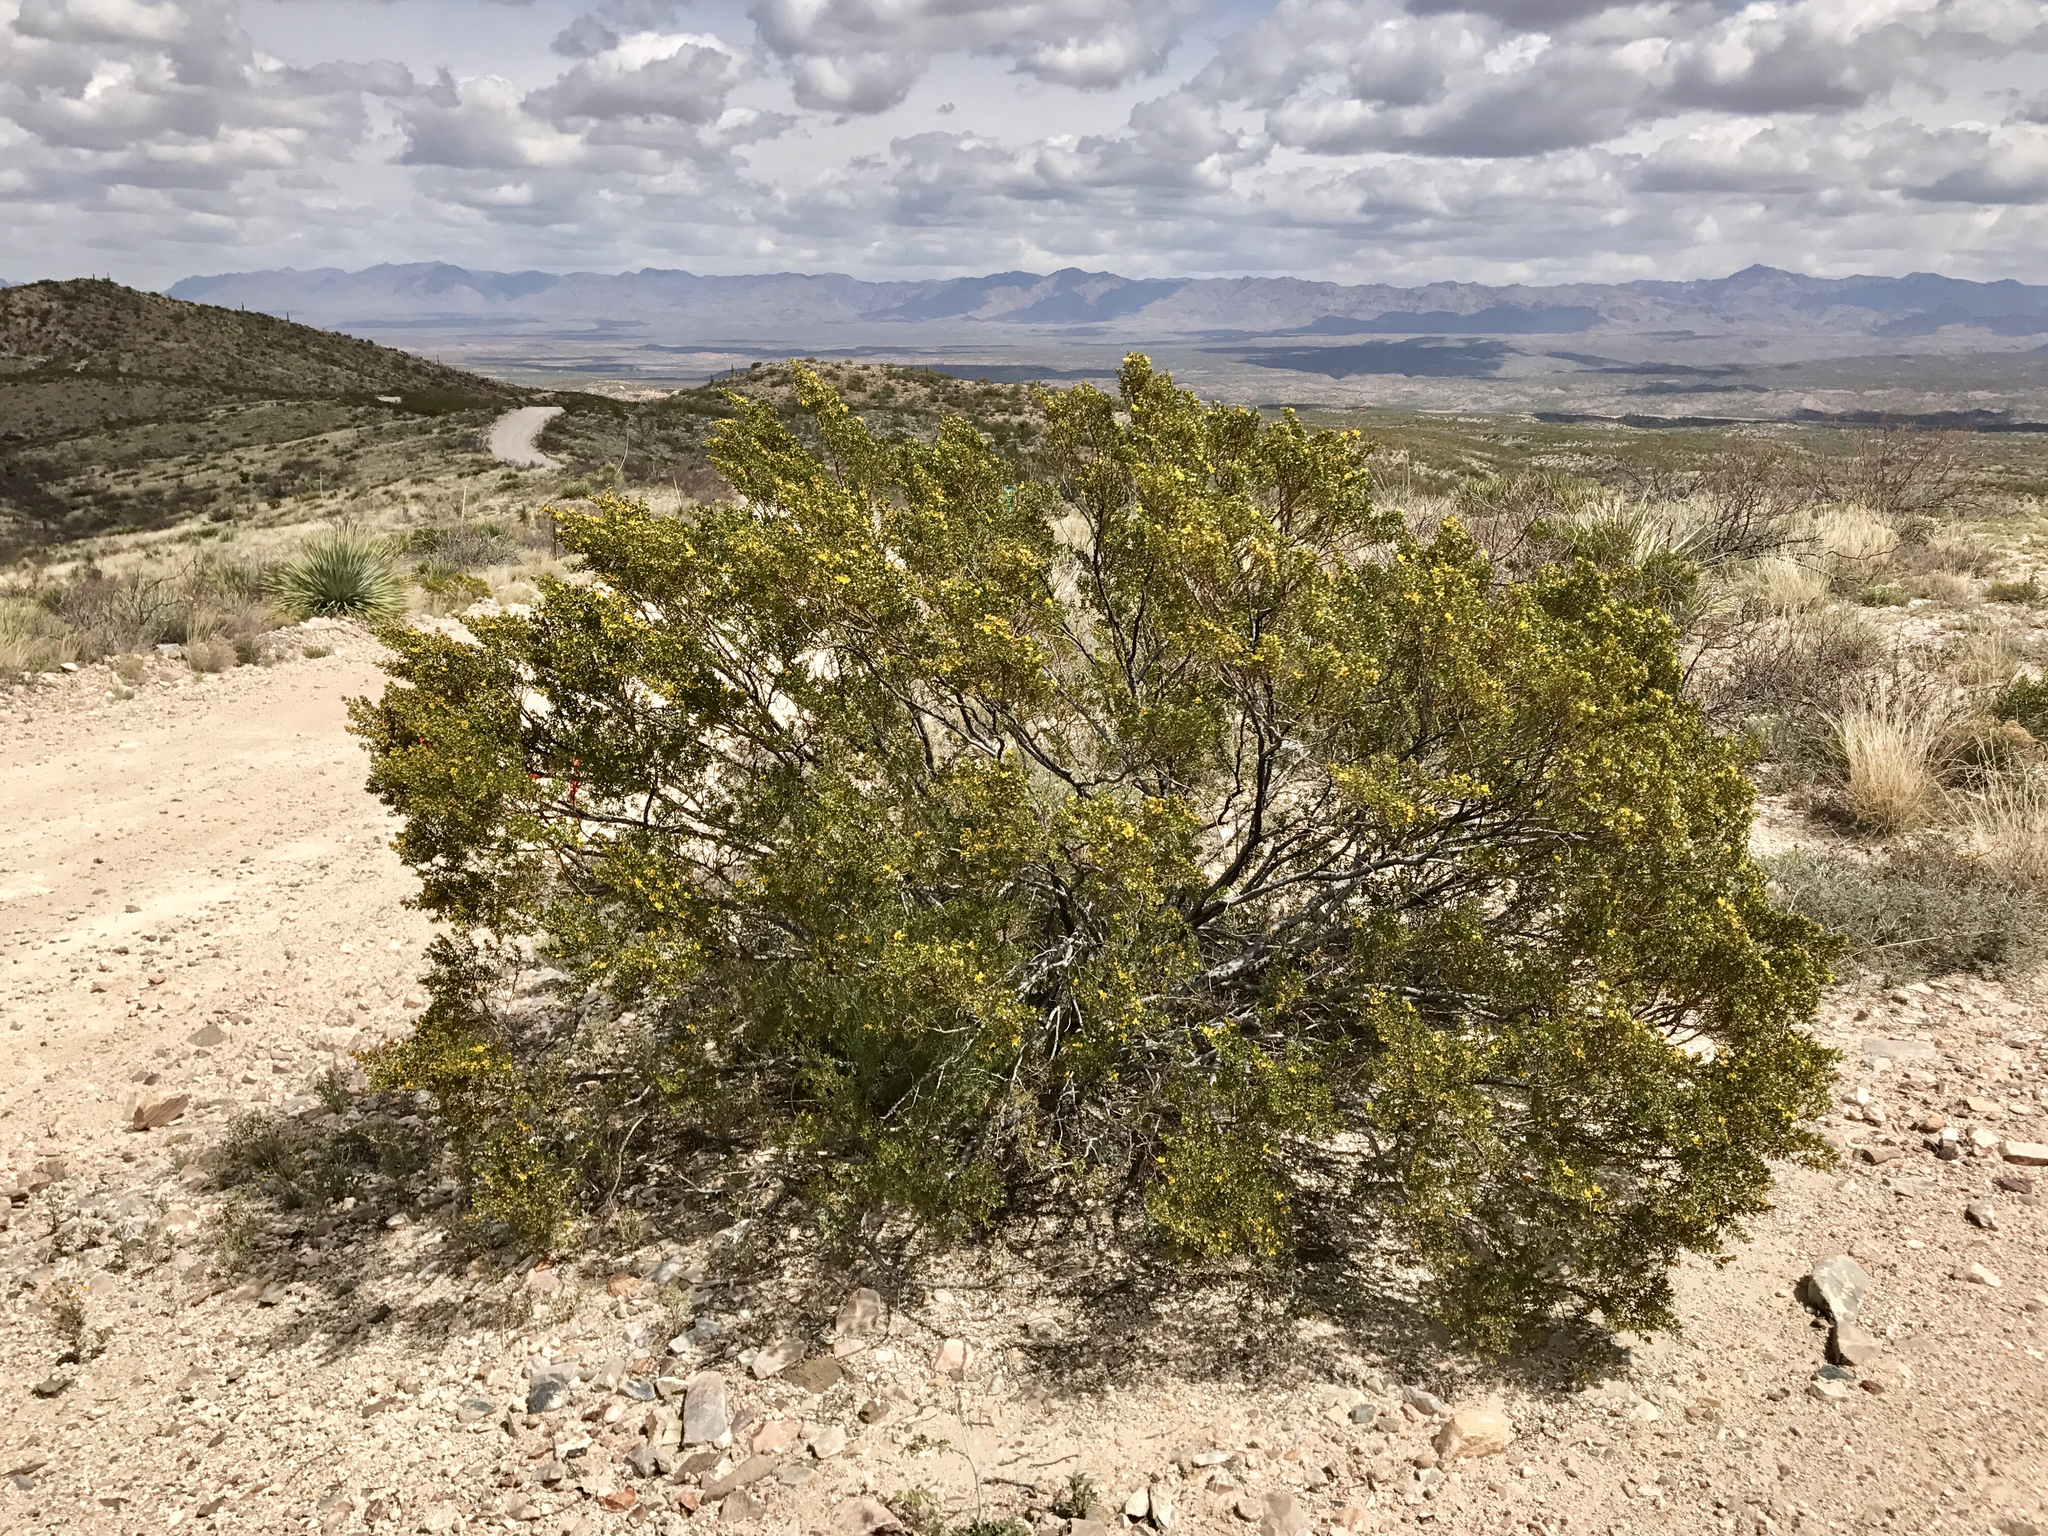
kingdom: Plantae
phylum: Tracheophyta
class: Magnoliopsida
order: Zygophyllales
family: Zygophyllaceae
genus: Larrea
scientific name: Larrea tridentata
